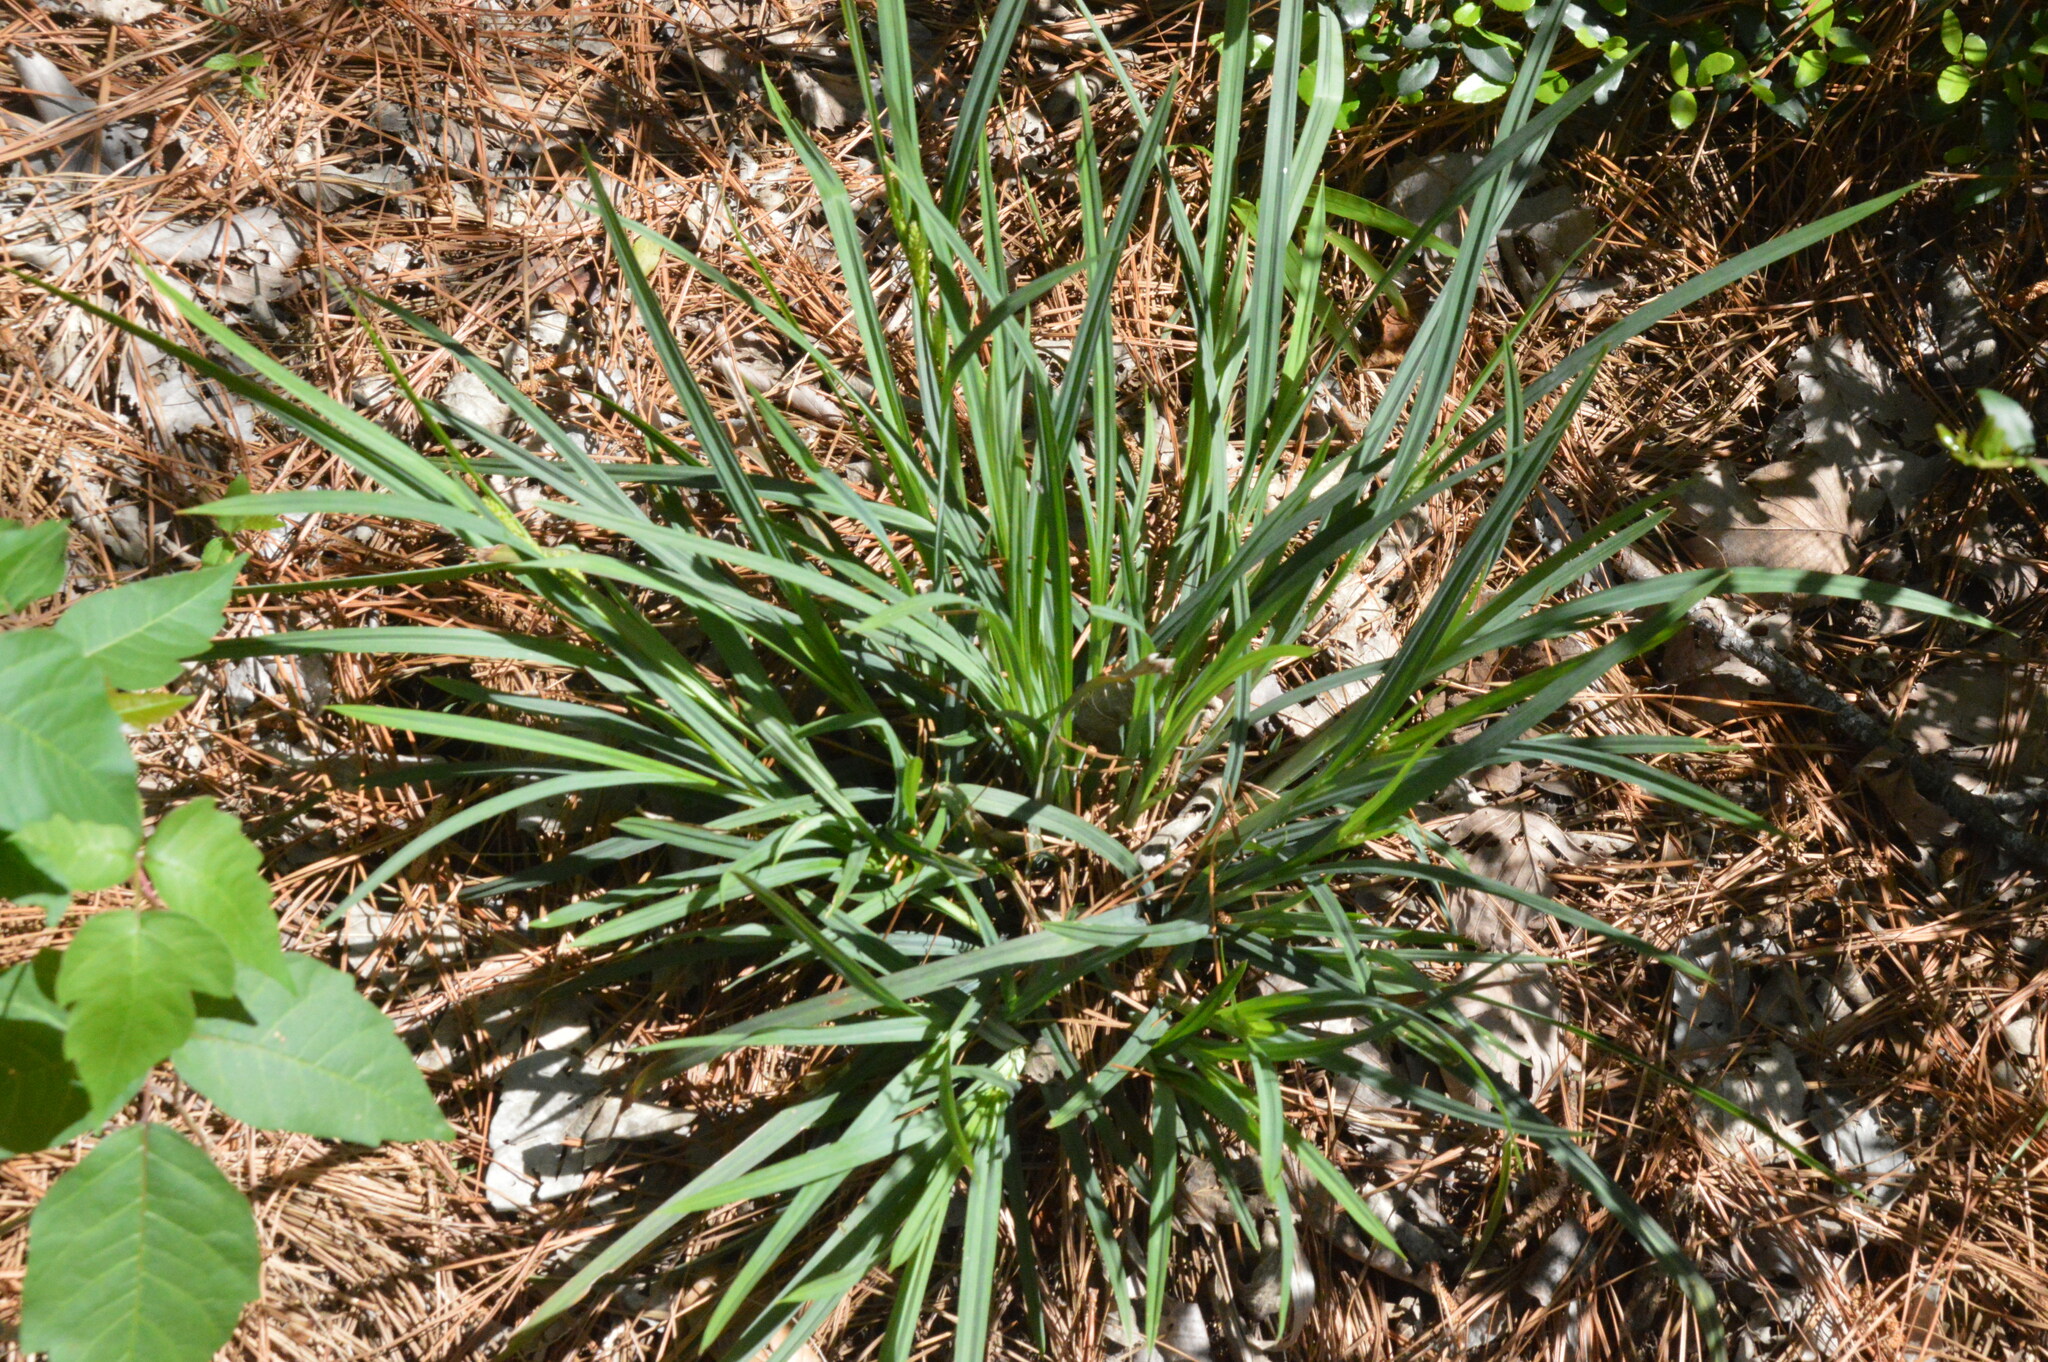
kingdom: Plantae
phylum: Tracheophyta
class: Liliopsida
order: Poales
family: Cyperaceae
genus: Carex
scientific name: Carex flaccosperma
